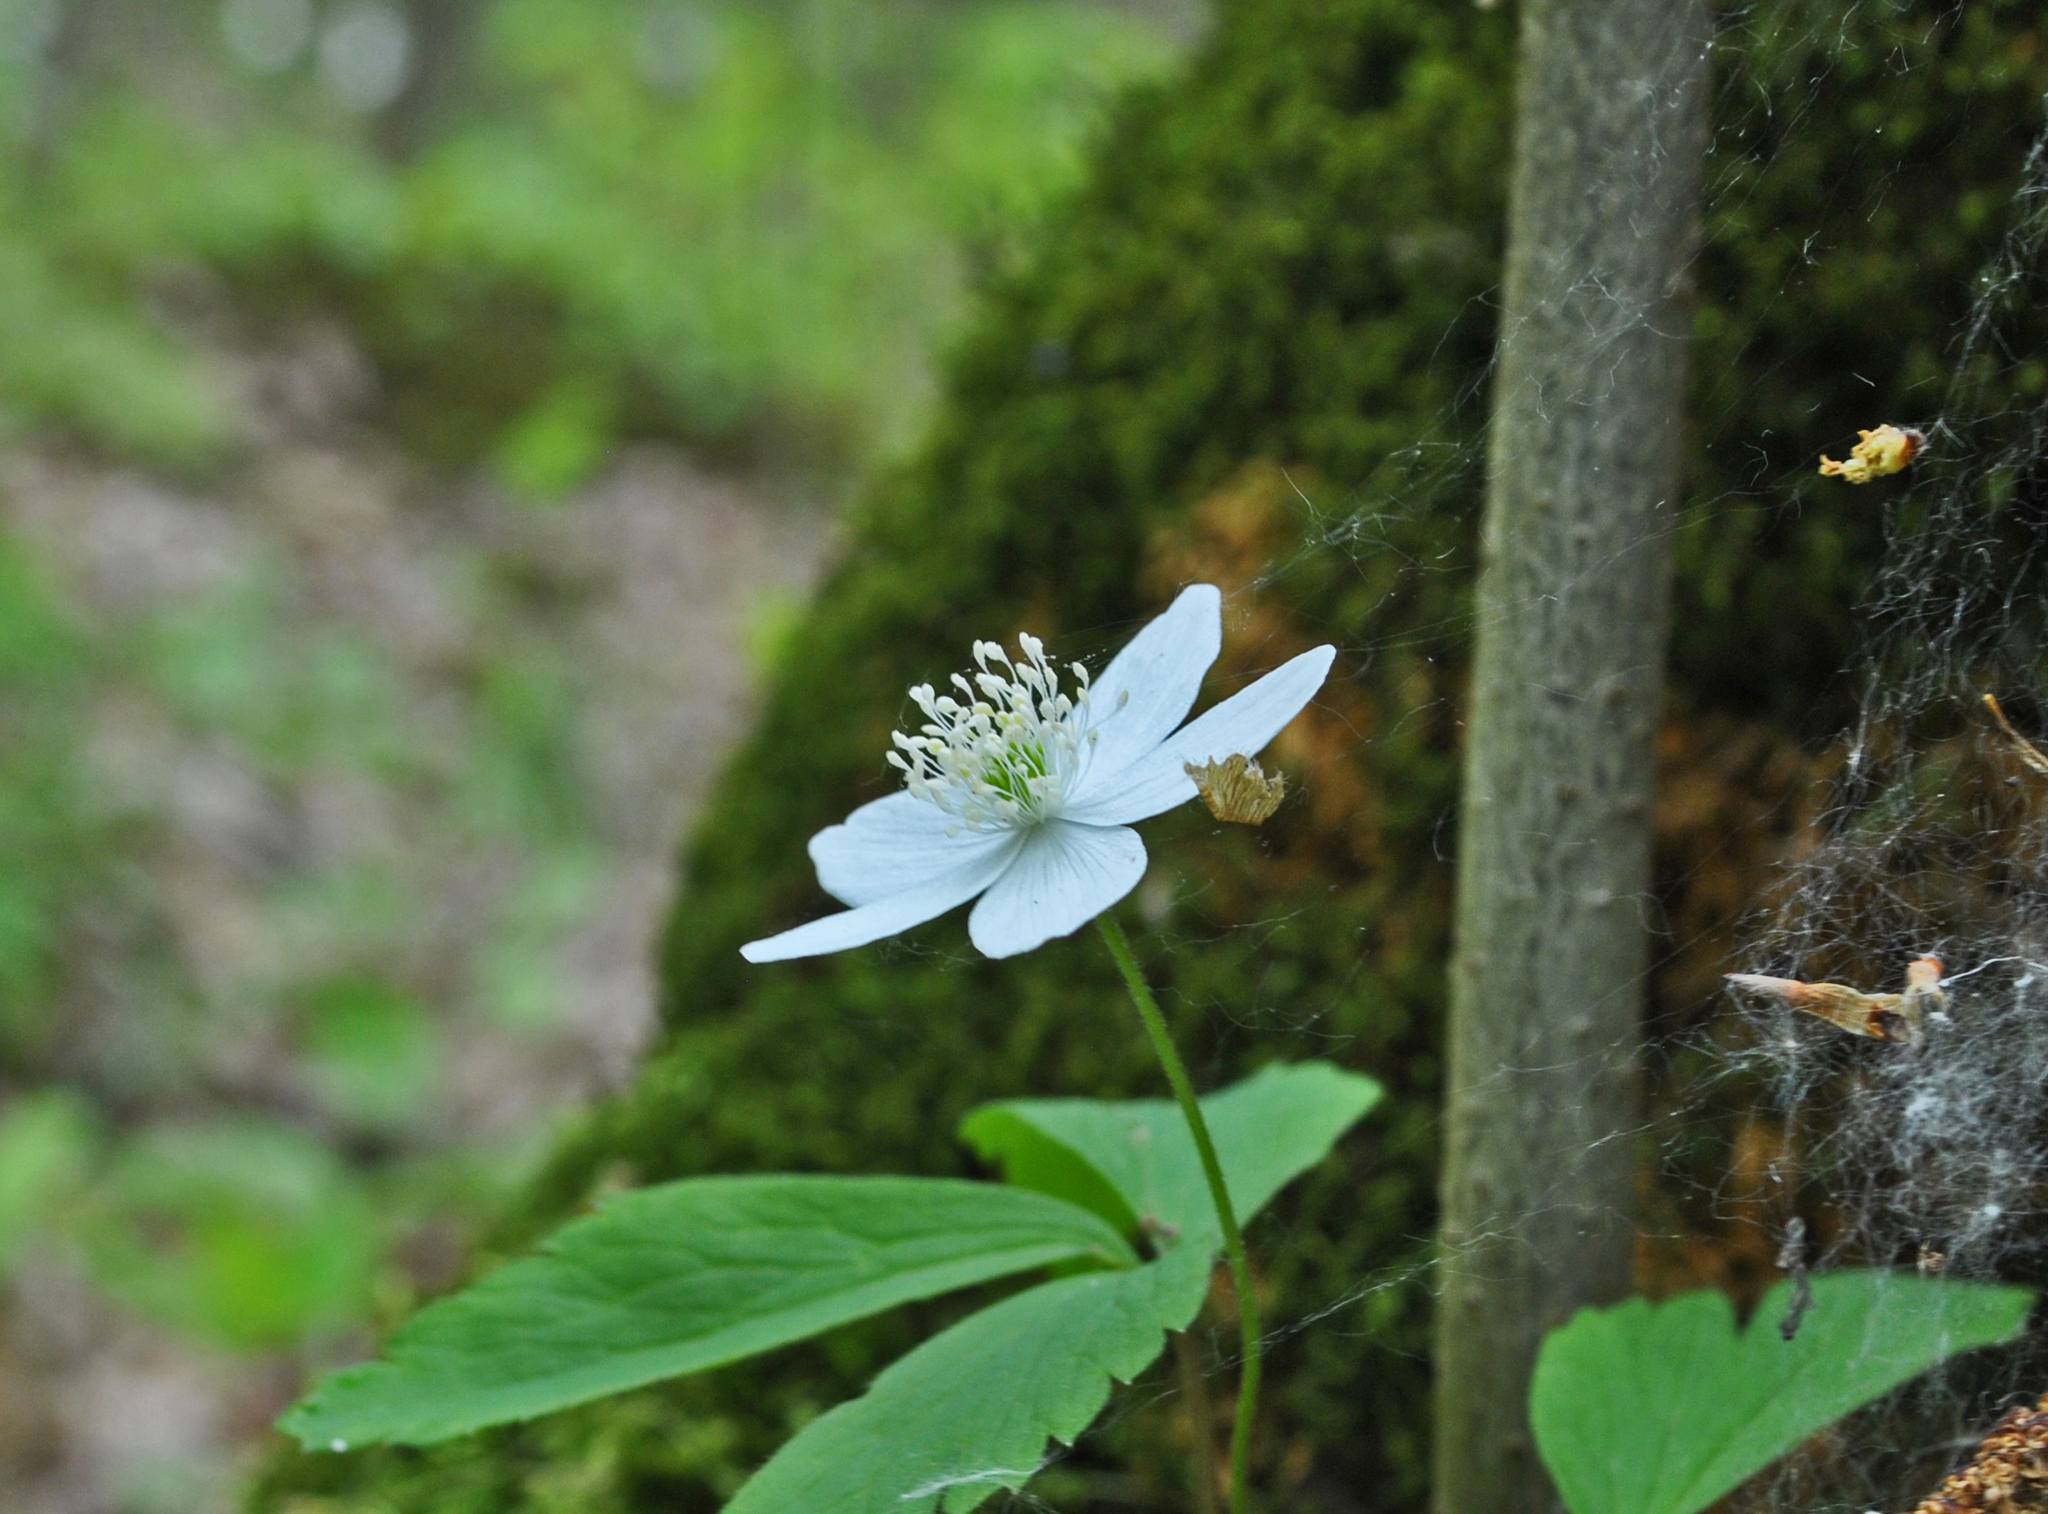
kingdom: Plantae
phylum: Tracheophyta
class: Magnoliopsida
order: Ranunculales
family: Ranunculaceae
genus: Anemone
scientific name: Anemone quinquefolia
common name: Wood anemone
